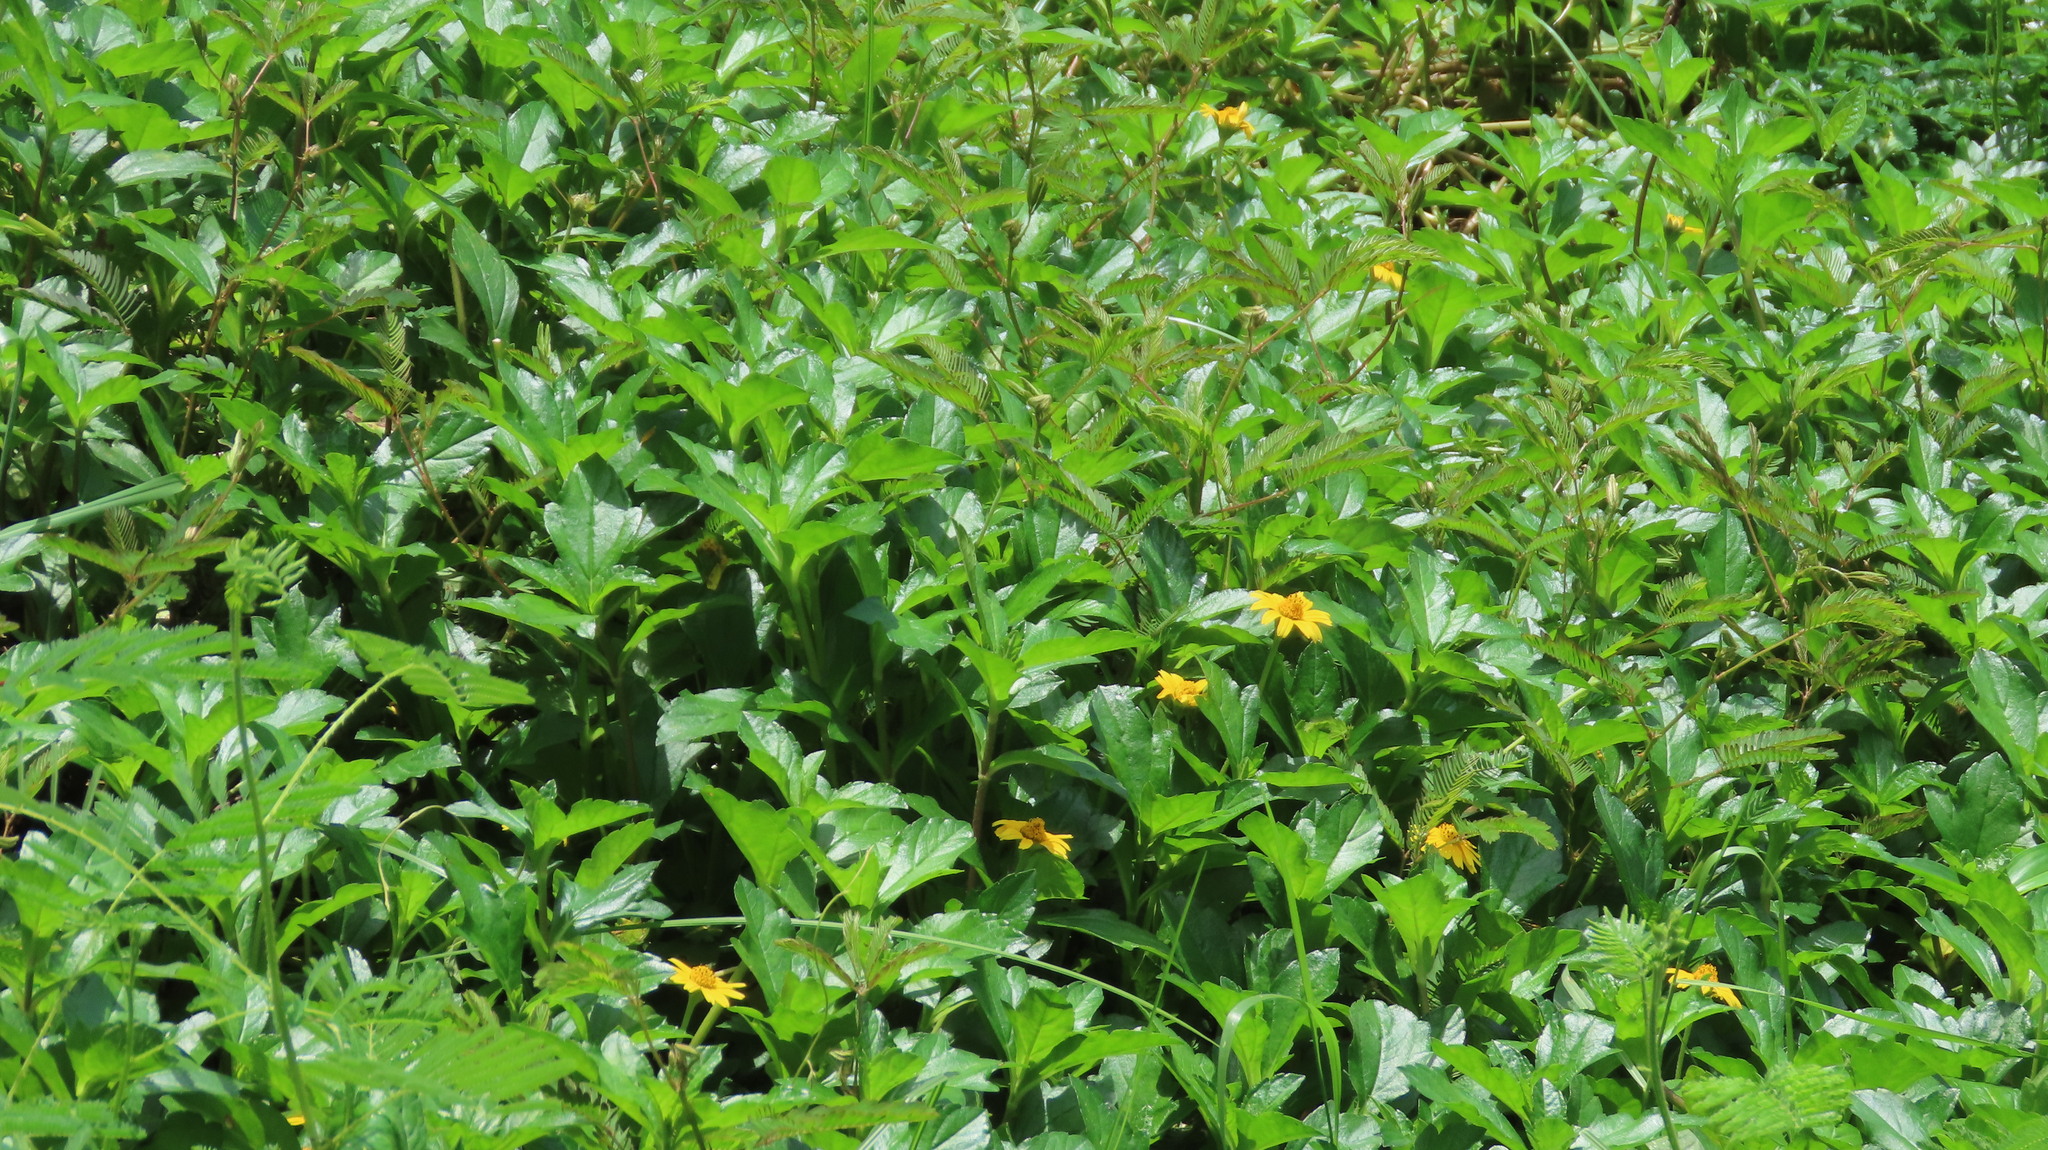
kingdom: Plantae
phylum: Tracheophyta
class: Magnoliopsida
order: Asterales
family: Asteraceae
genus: Sphagneticola
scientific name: Sphagneticola trilobata
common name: Bay biscayne creeping-oxeye
